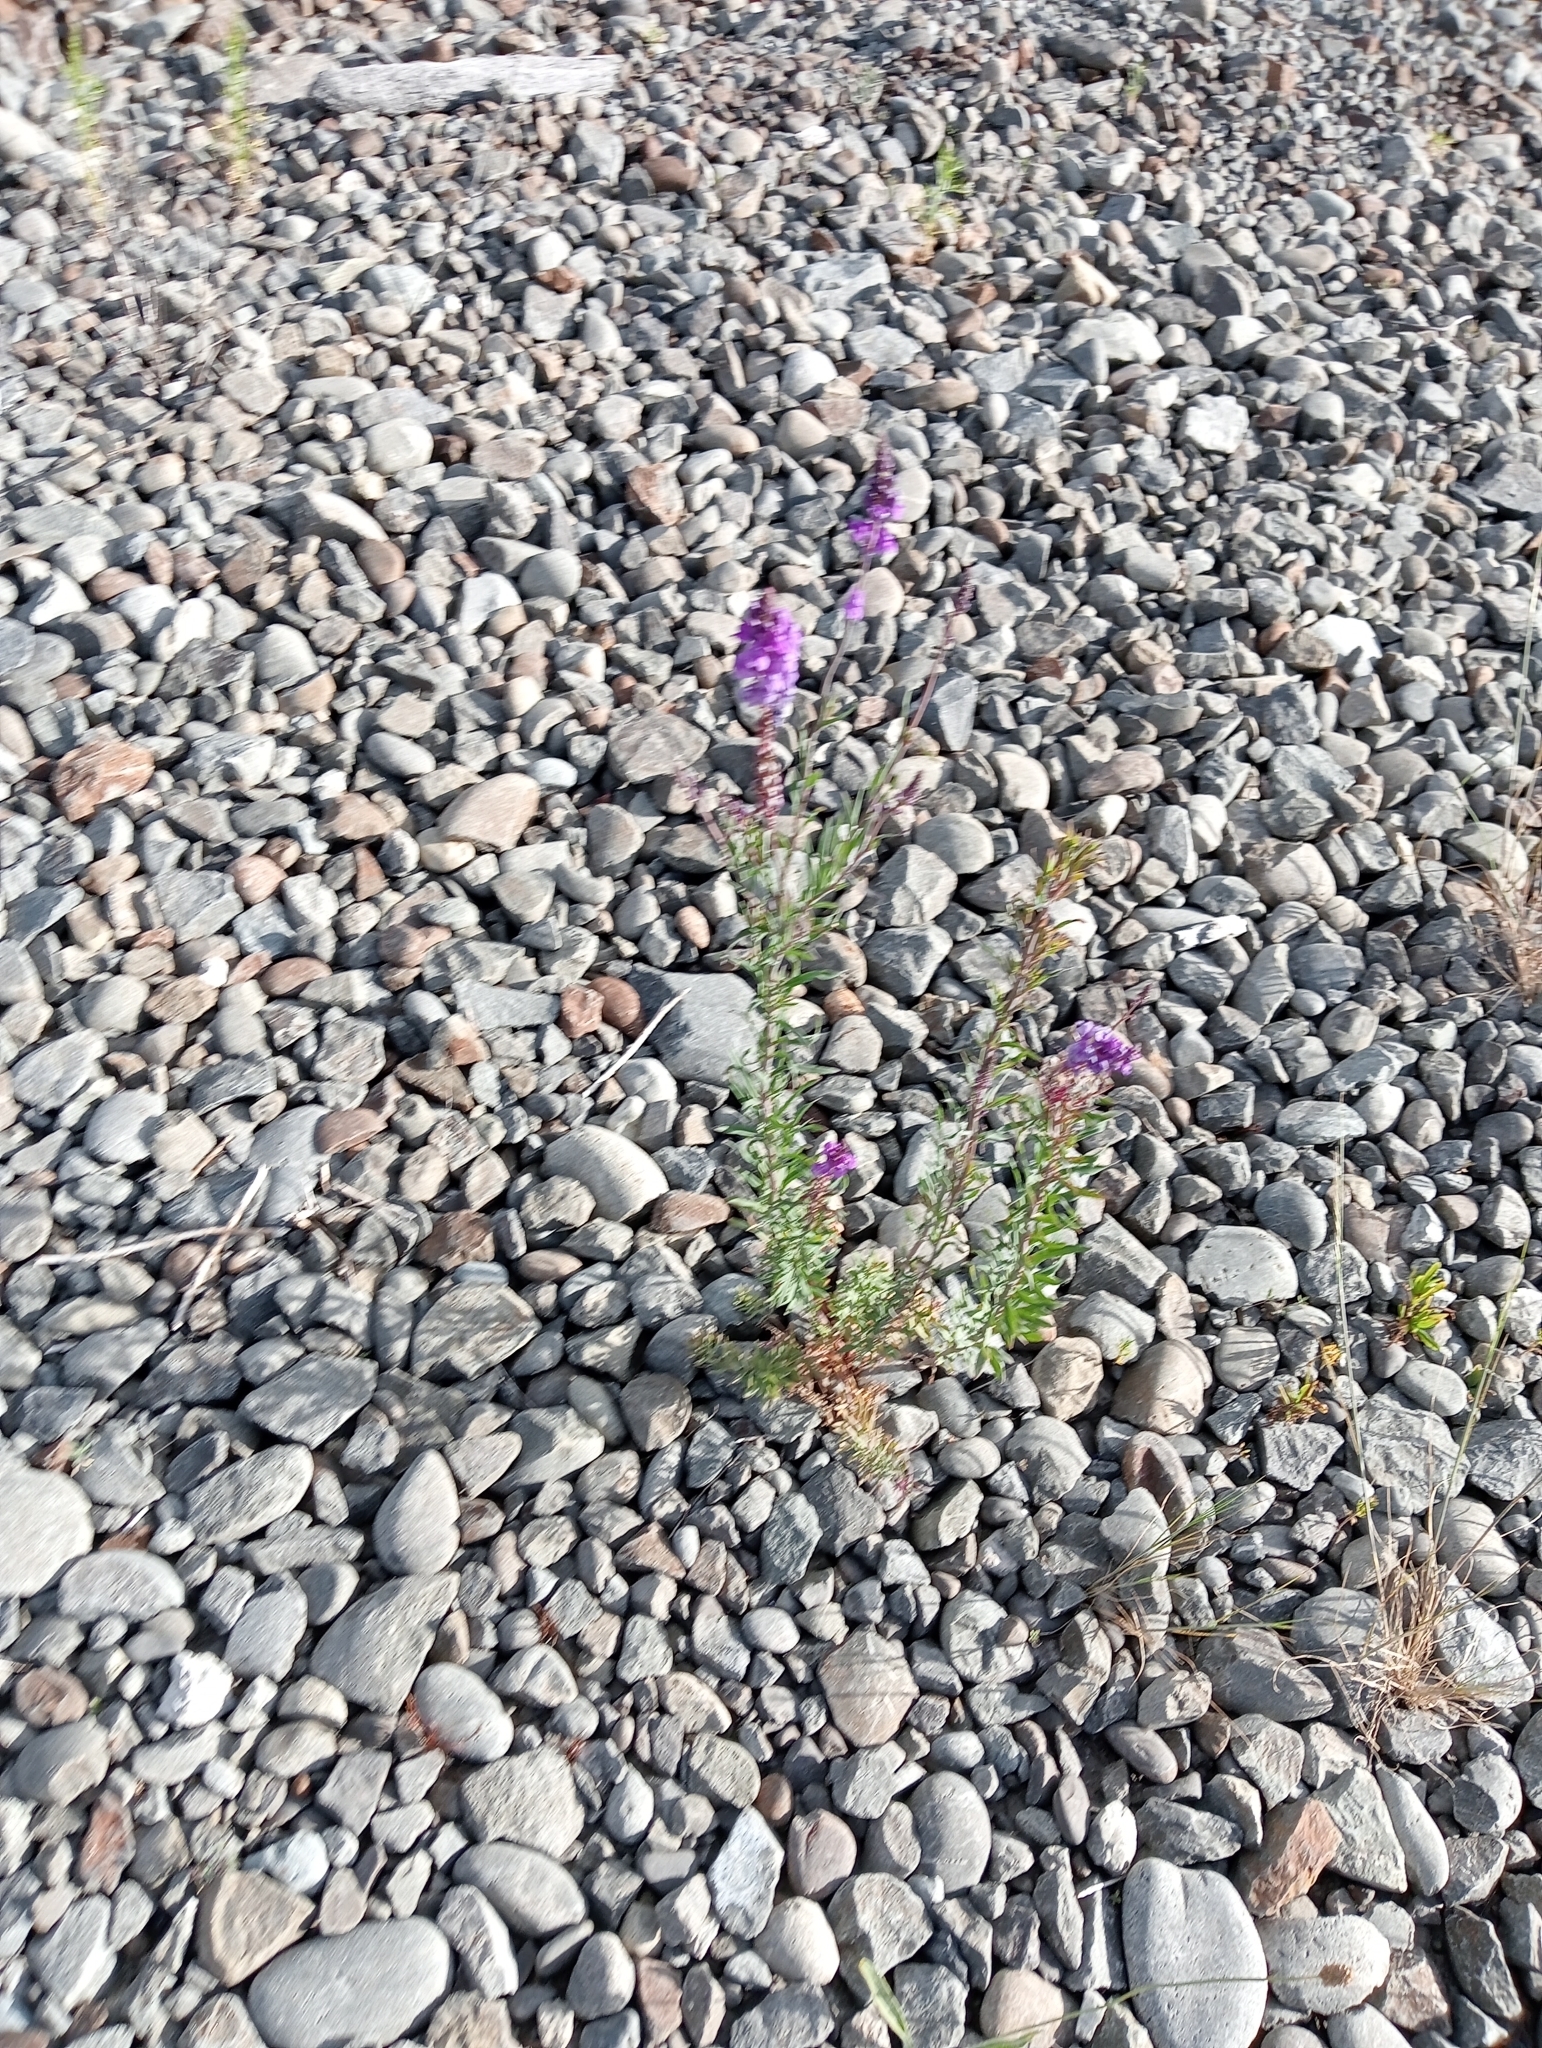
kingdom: Plantae
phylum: Tracheophyta
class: Magnoliopsida
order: Lamiales
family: Plantaginaceae
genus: Linaria
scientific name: Linaria purpurea
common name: Purple toadflax
